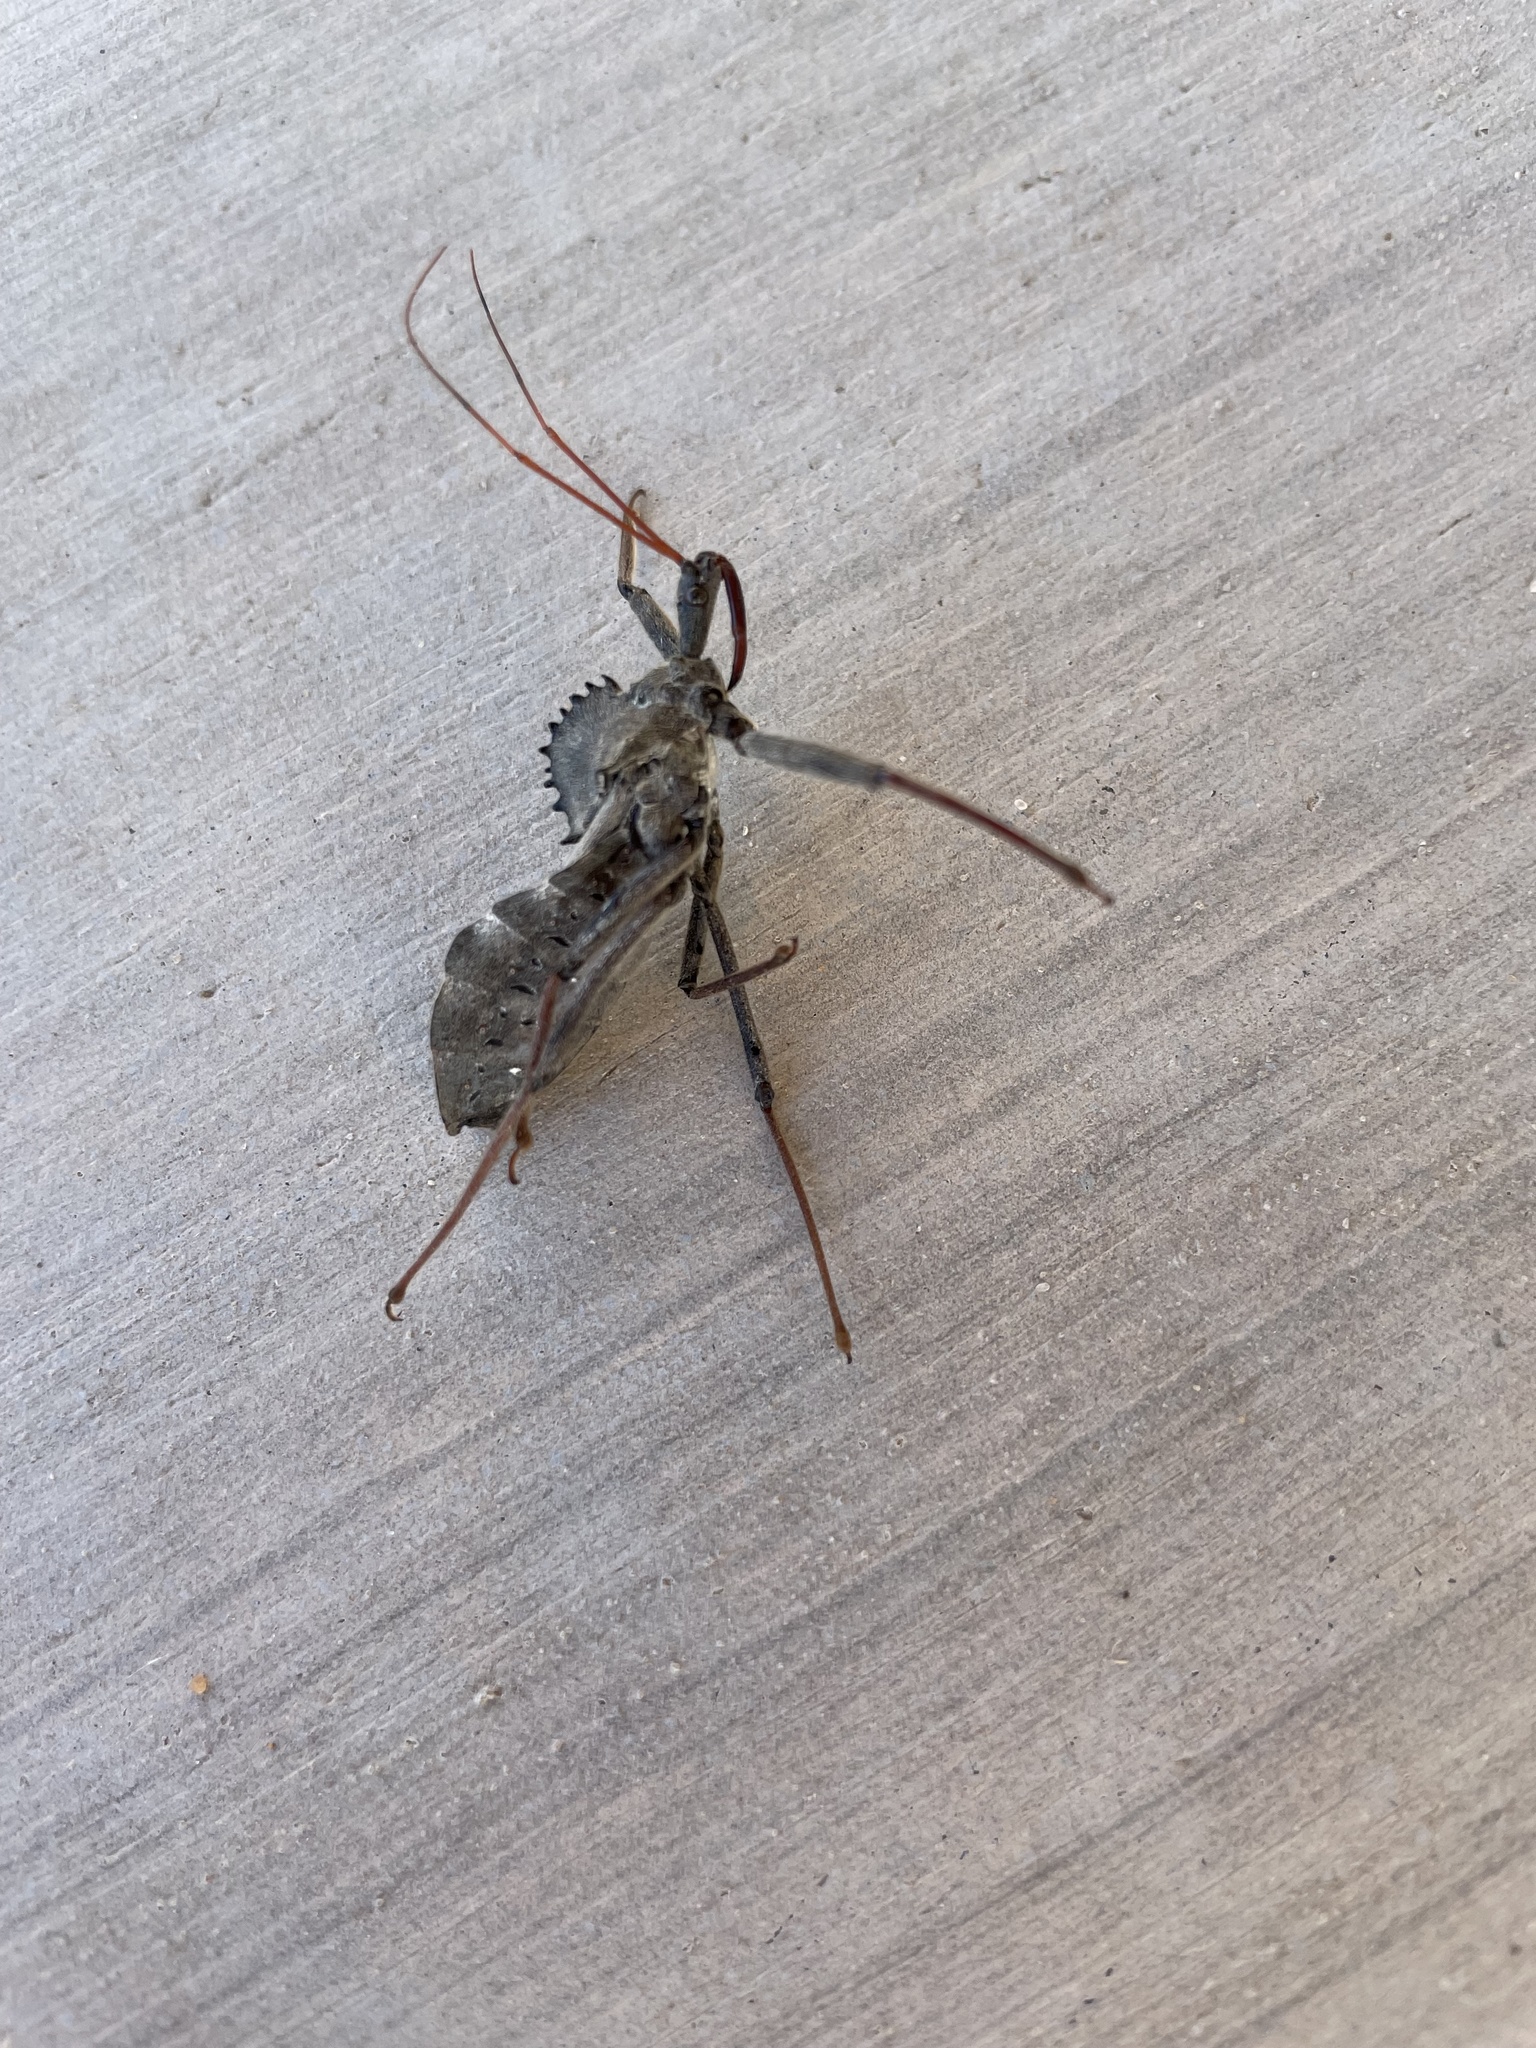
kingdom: Animalia
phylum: Arthropoda
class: Insecta
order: Hemiptera
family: Reduviidae
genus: Arilus
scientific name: Arilus cristatus
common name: North american wheel bug
